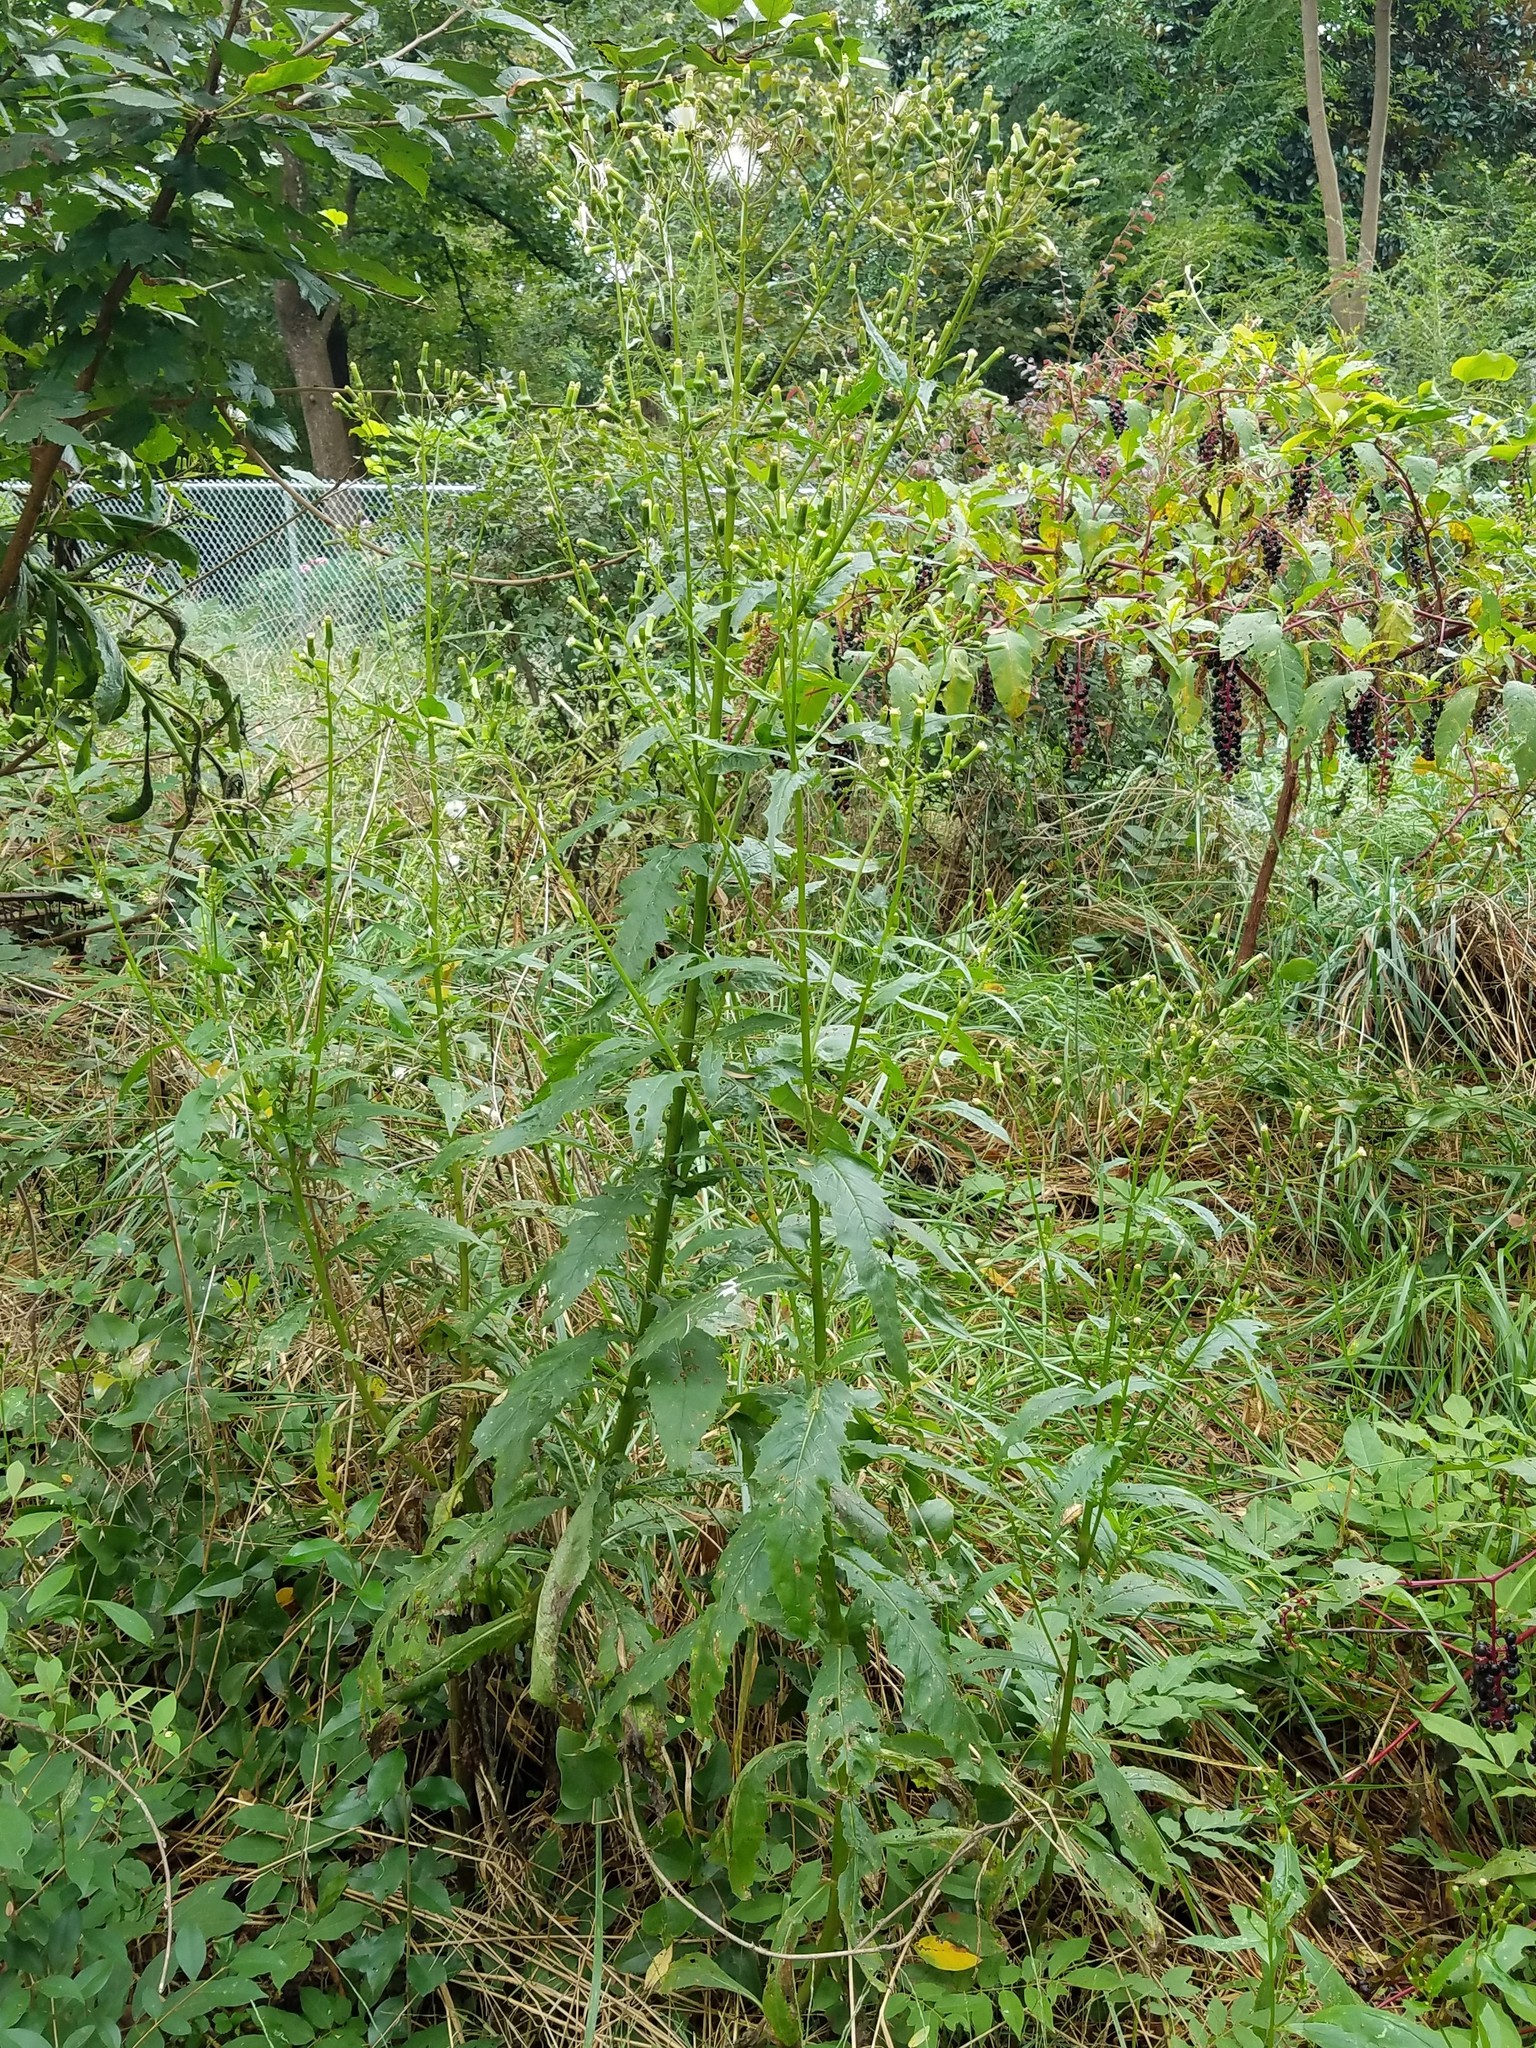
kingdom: Plantae
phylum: Tracheophyta
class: Magnoliopsida
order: Asterales
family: Asteraceae
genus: Erechtites
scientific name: Erechtites hieraciifolius
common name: American burnweed
